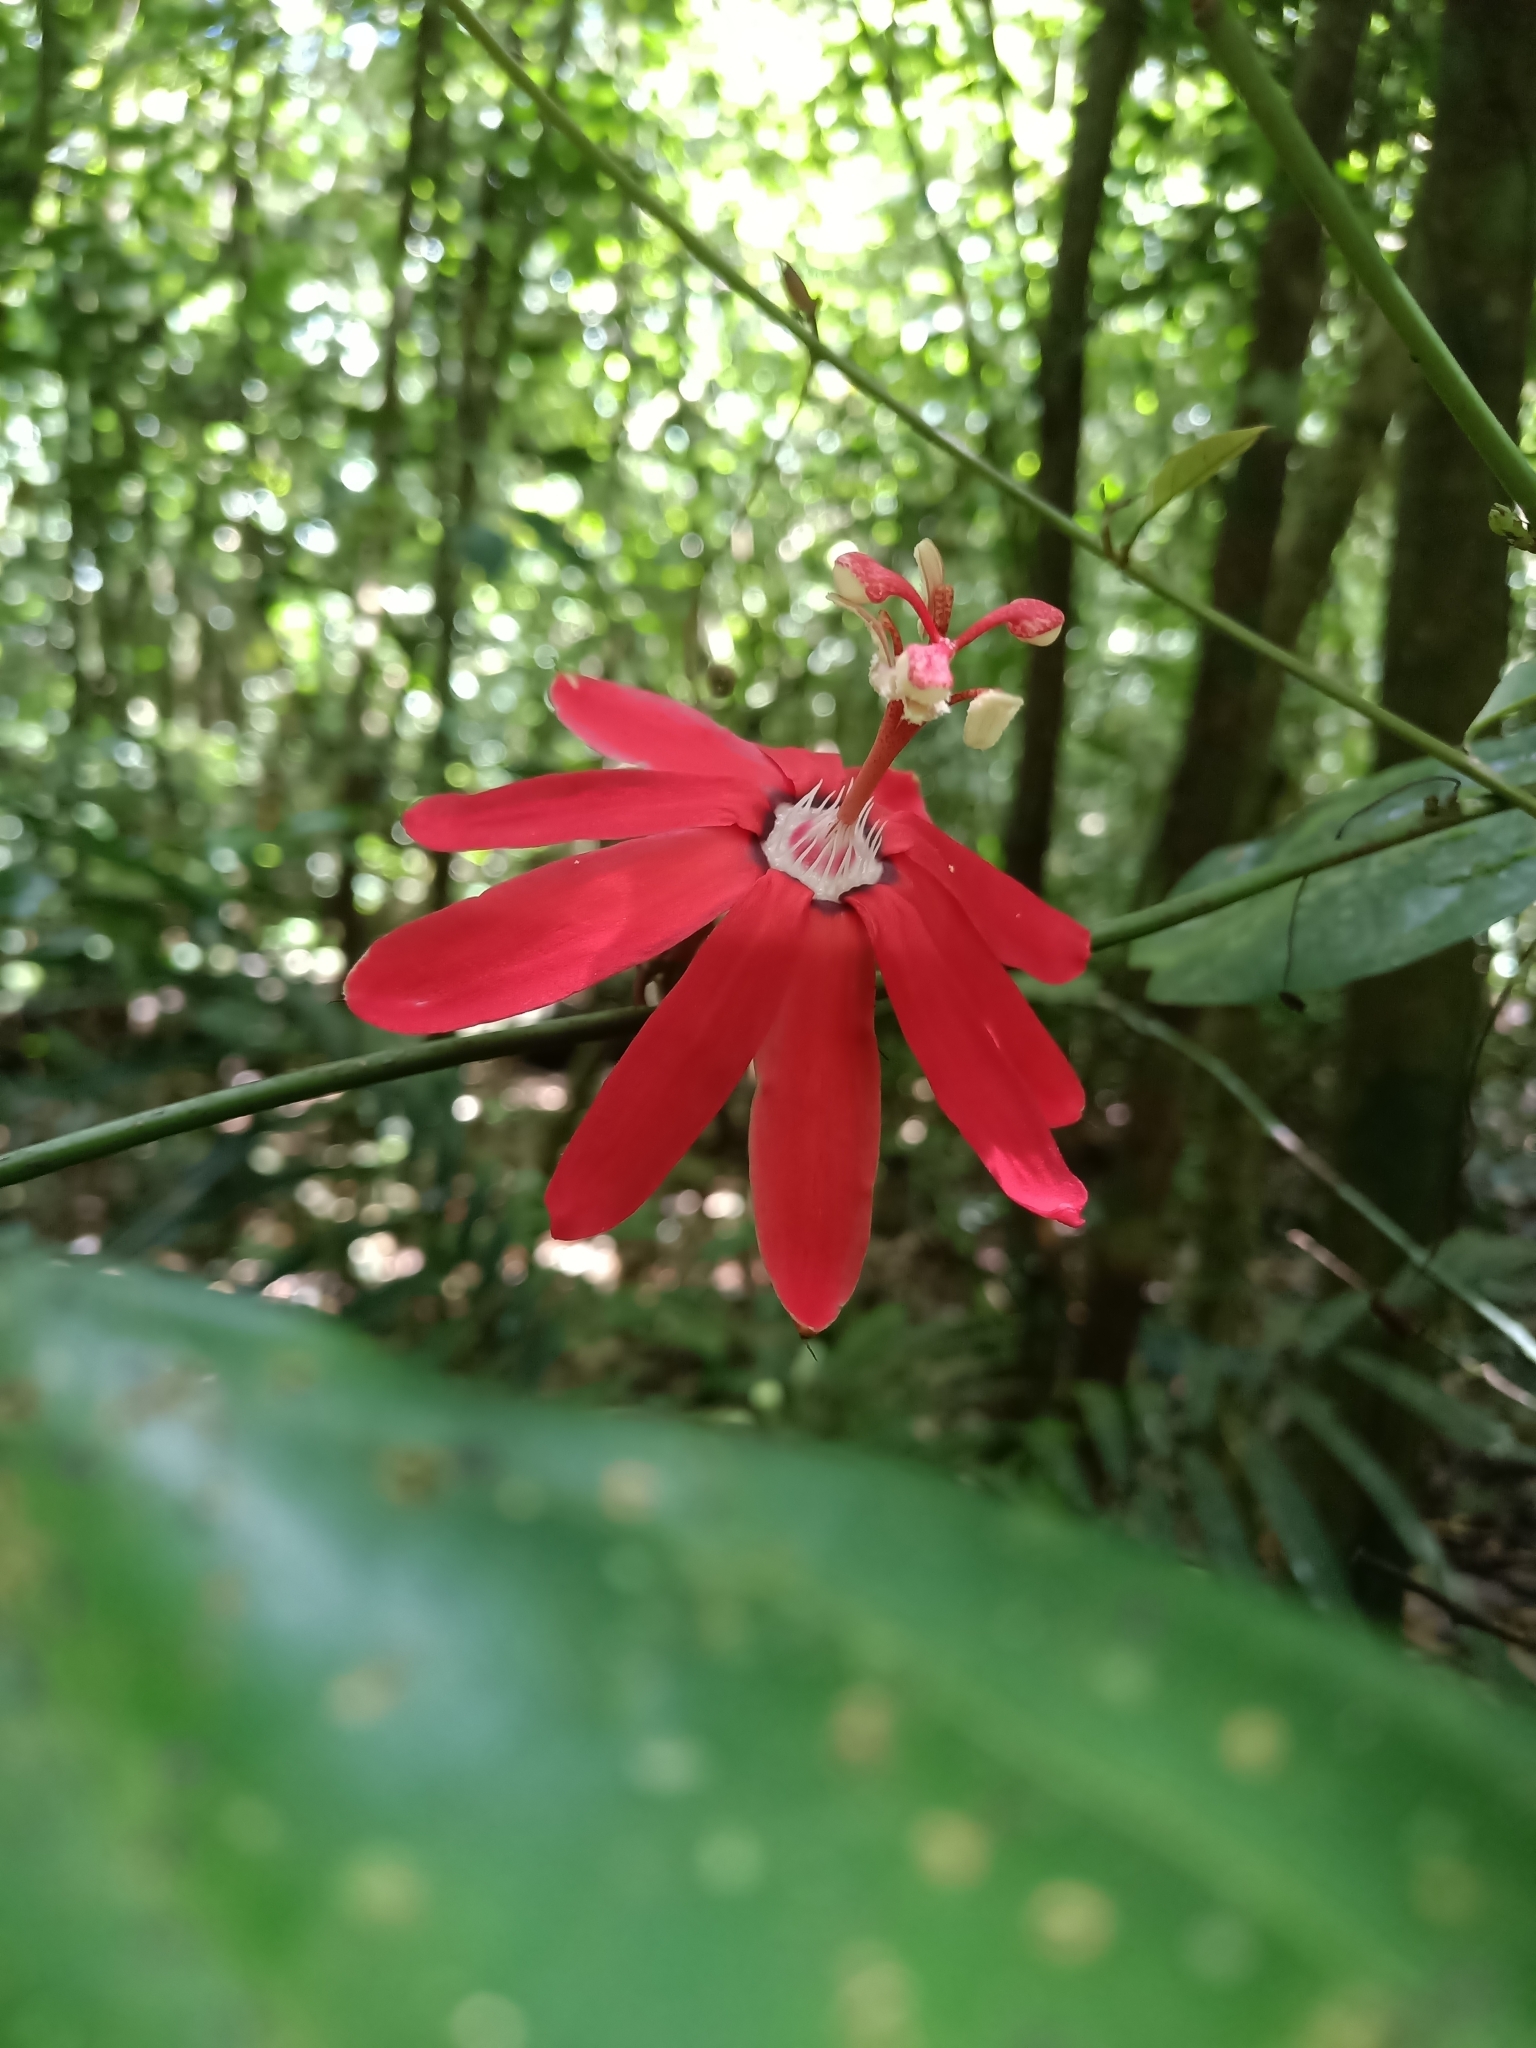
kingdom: Plantae
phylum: Tracheophyta
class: Magnoliopsida
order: Malpighiales
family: Passifloraceae
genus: Passiflora
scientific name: Passiflora glandulosa
